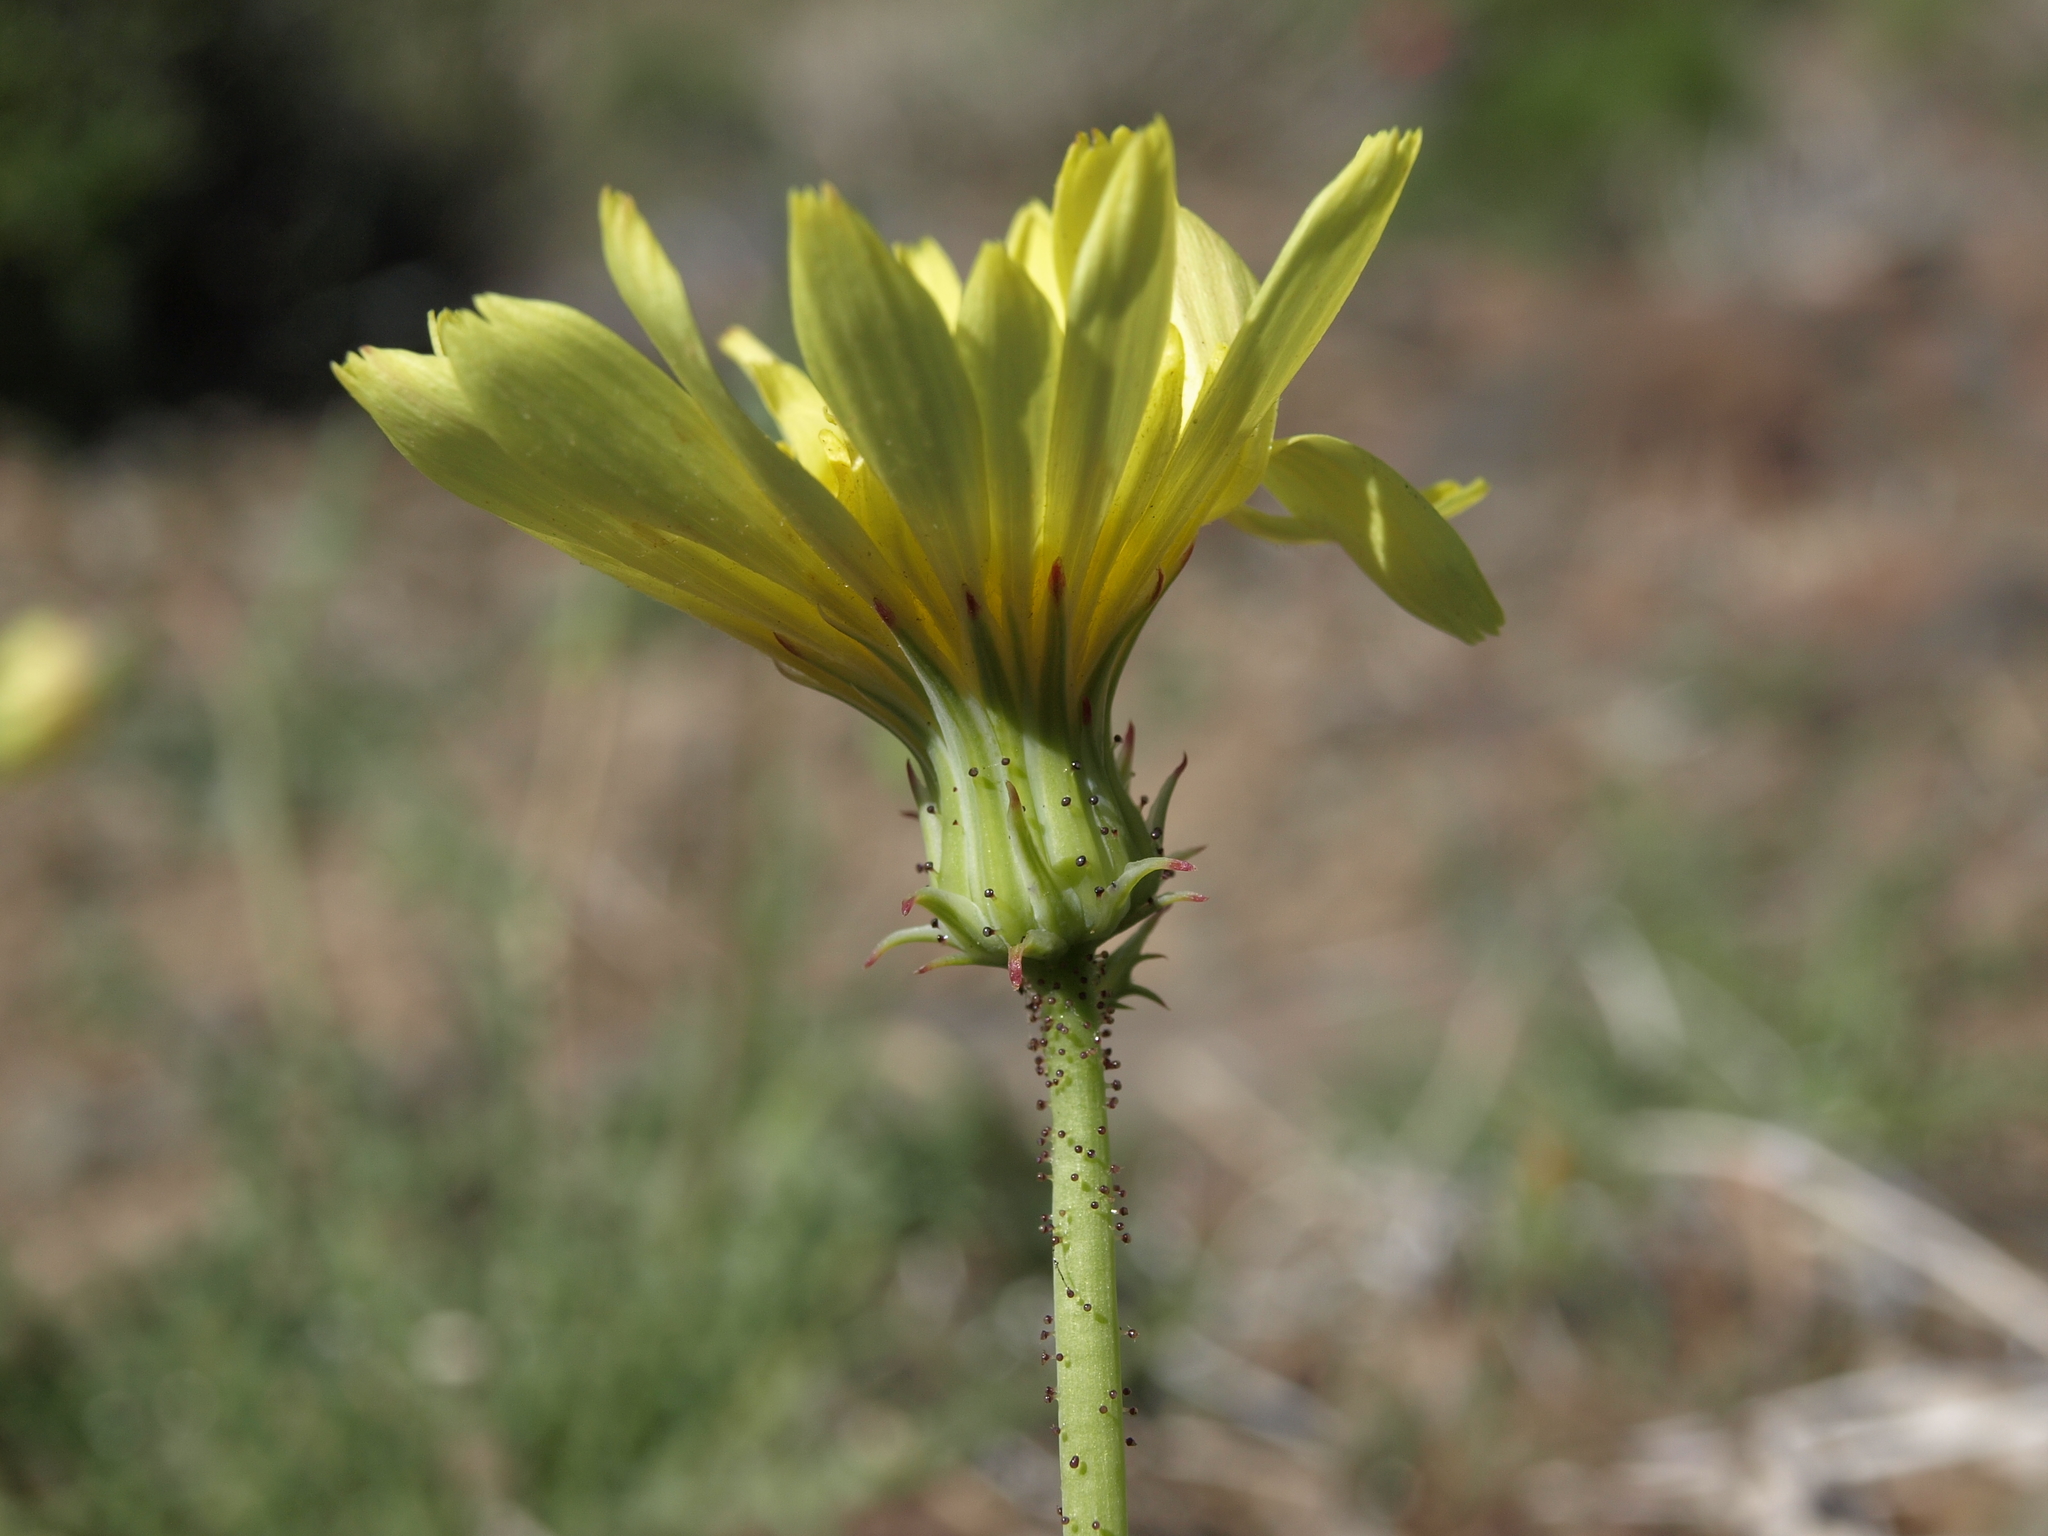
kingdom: Plantae
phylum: Tracheophyta
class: Magnoliopsida
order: Asterales
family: Asteraceae
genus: Calycoseris
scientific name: Calycoseris parryi
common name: Yellow tackstem
